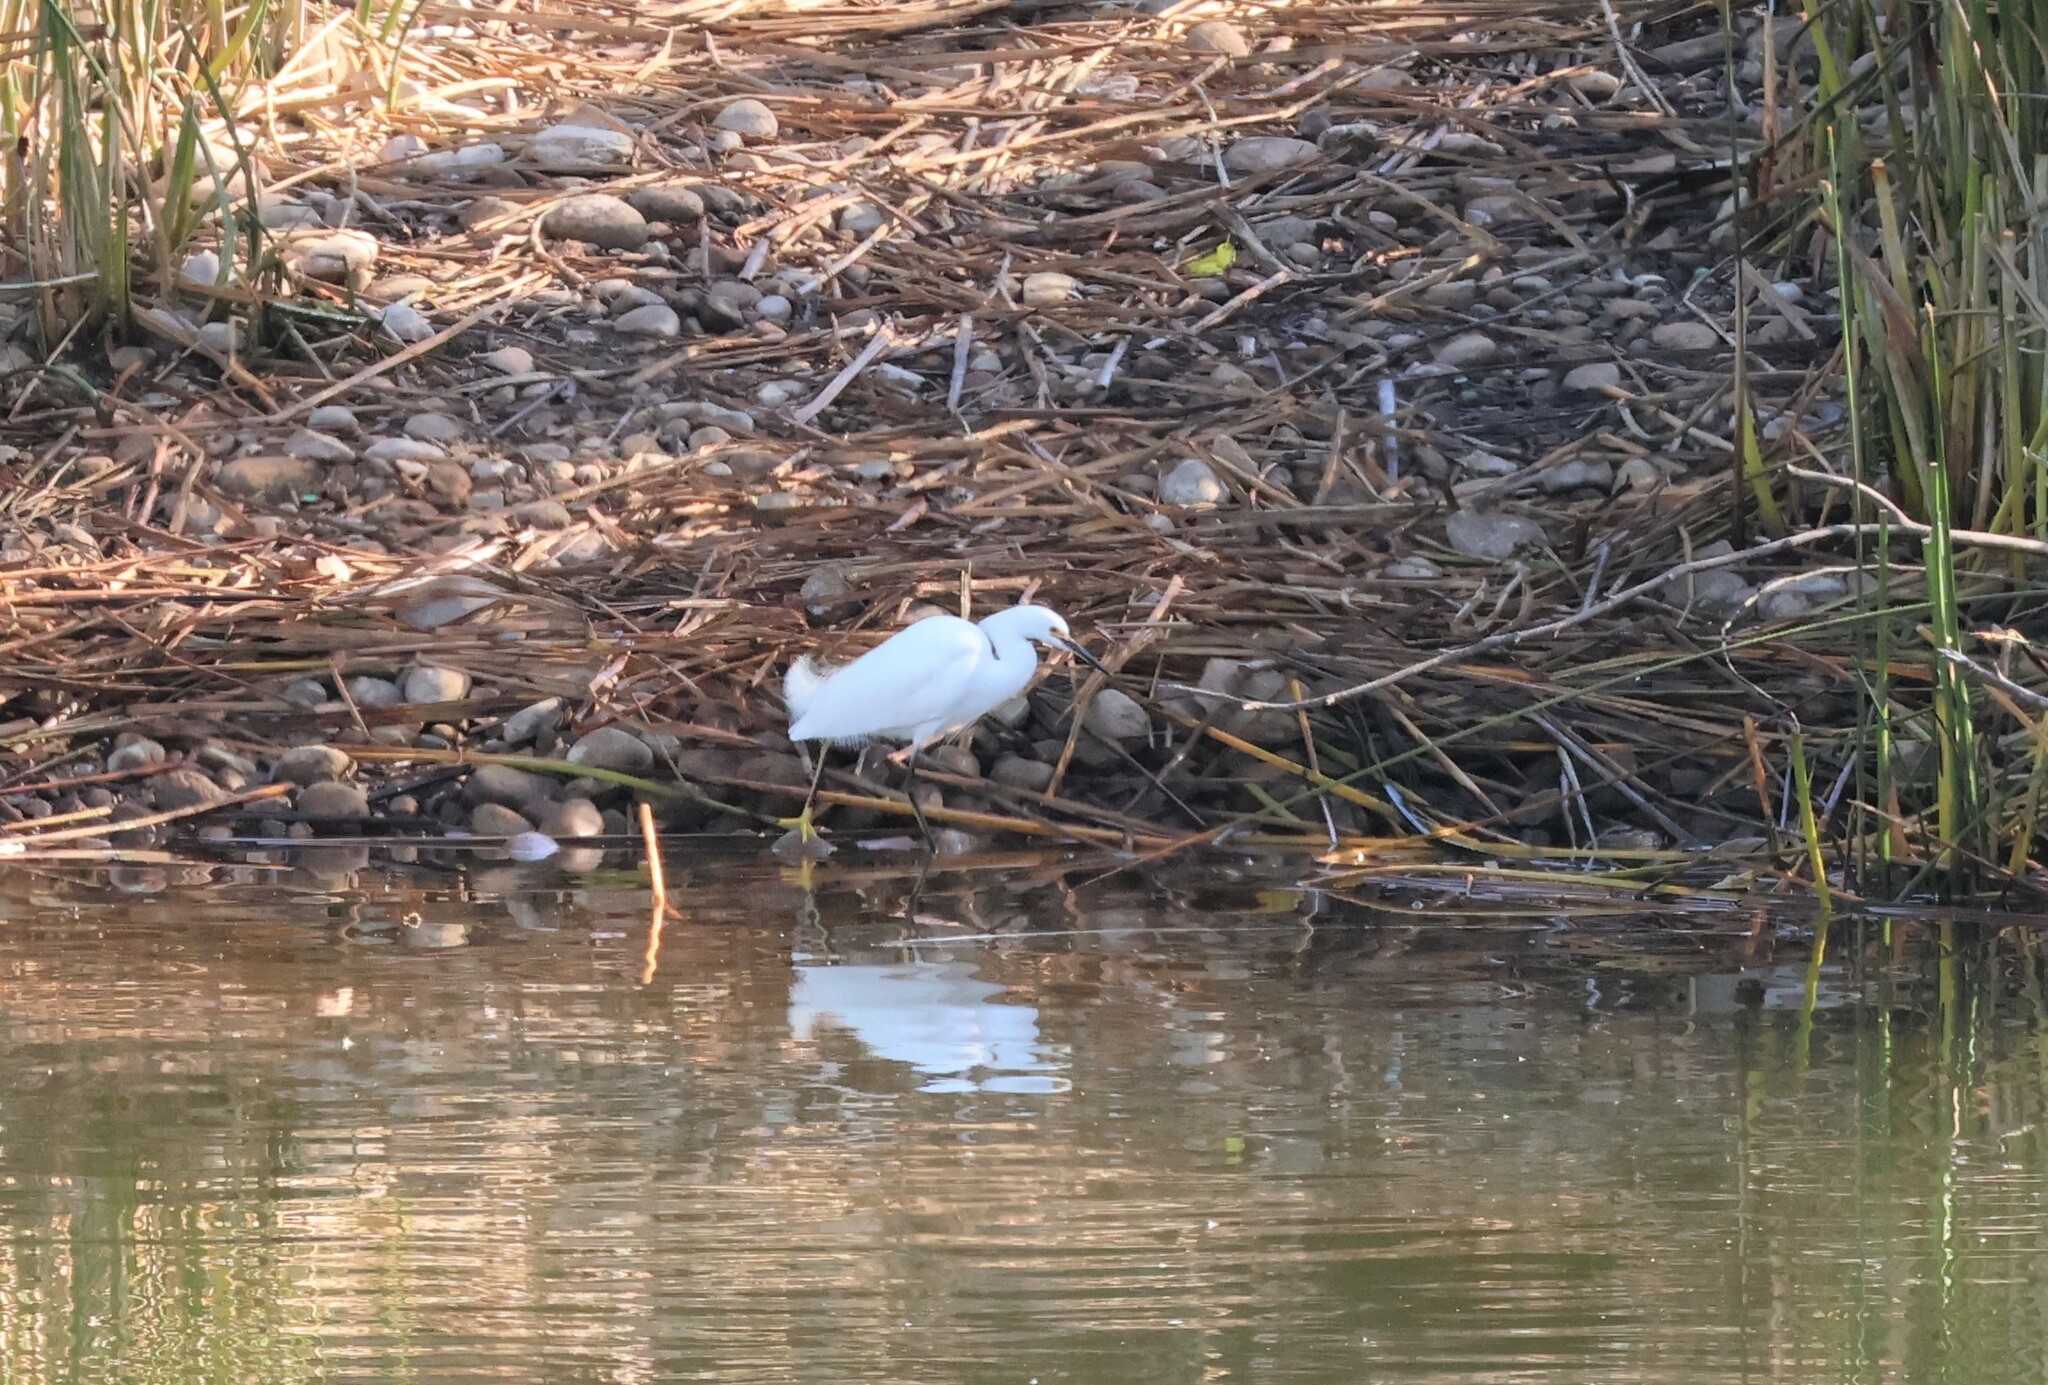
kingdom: Animalia
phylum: Chordata
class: Aves
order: Pelecaniformes
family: Ardeidae
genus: Egretta
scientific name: Egretta thula
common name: Snowy egret
